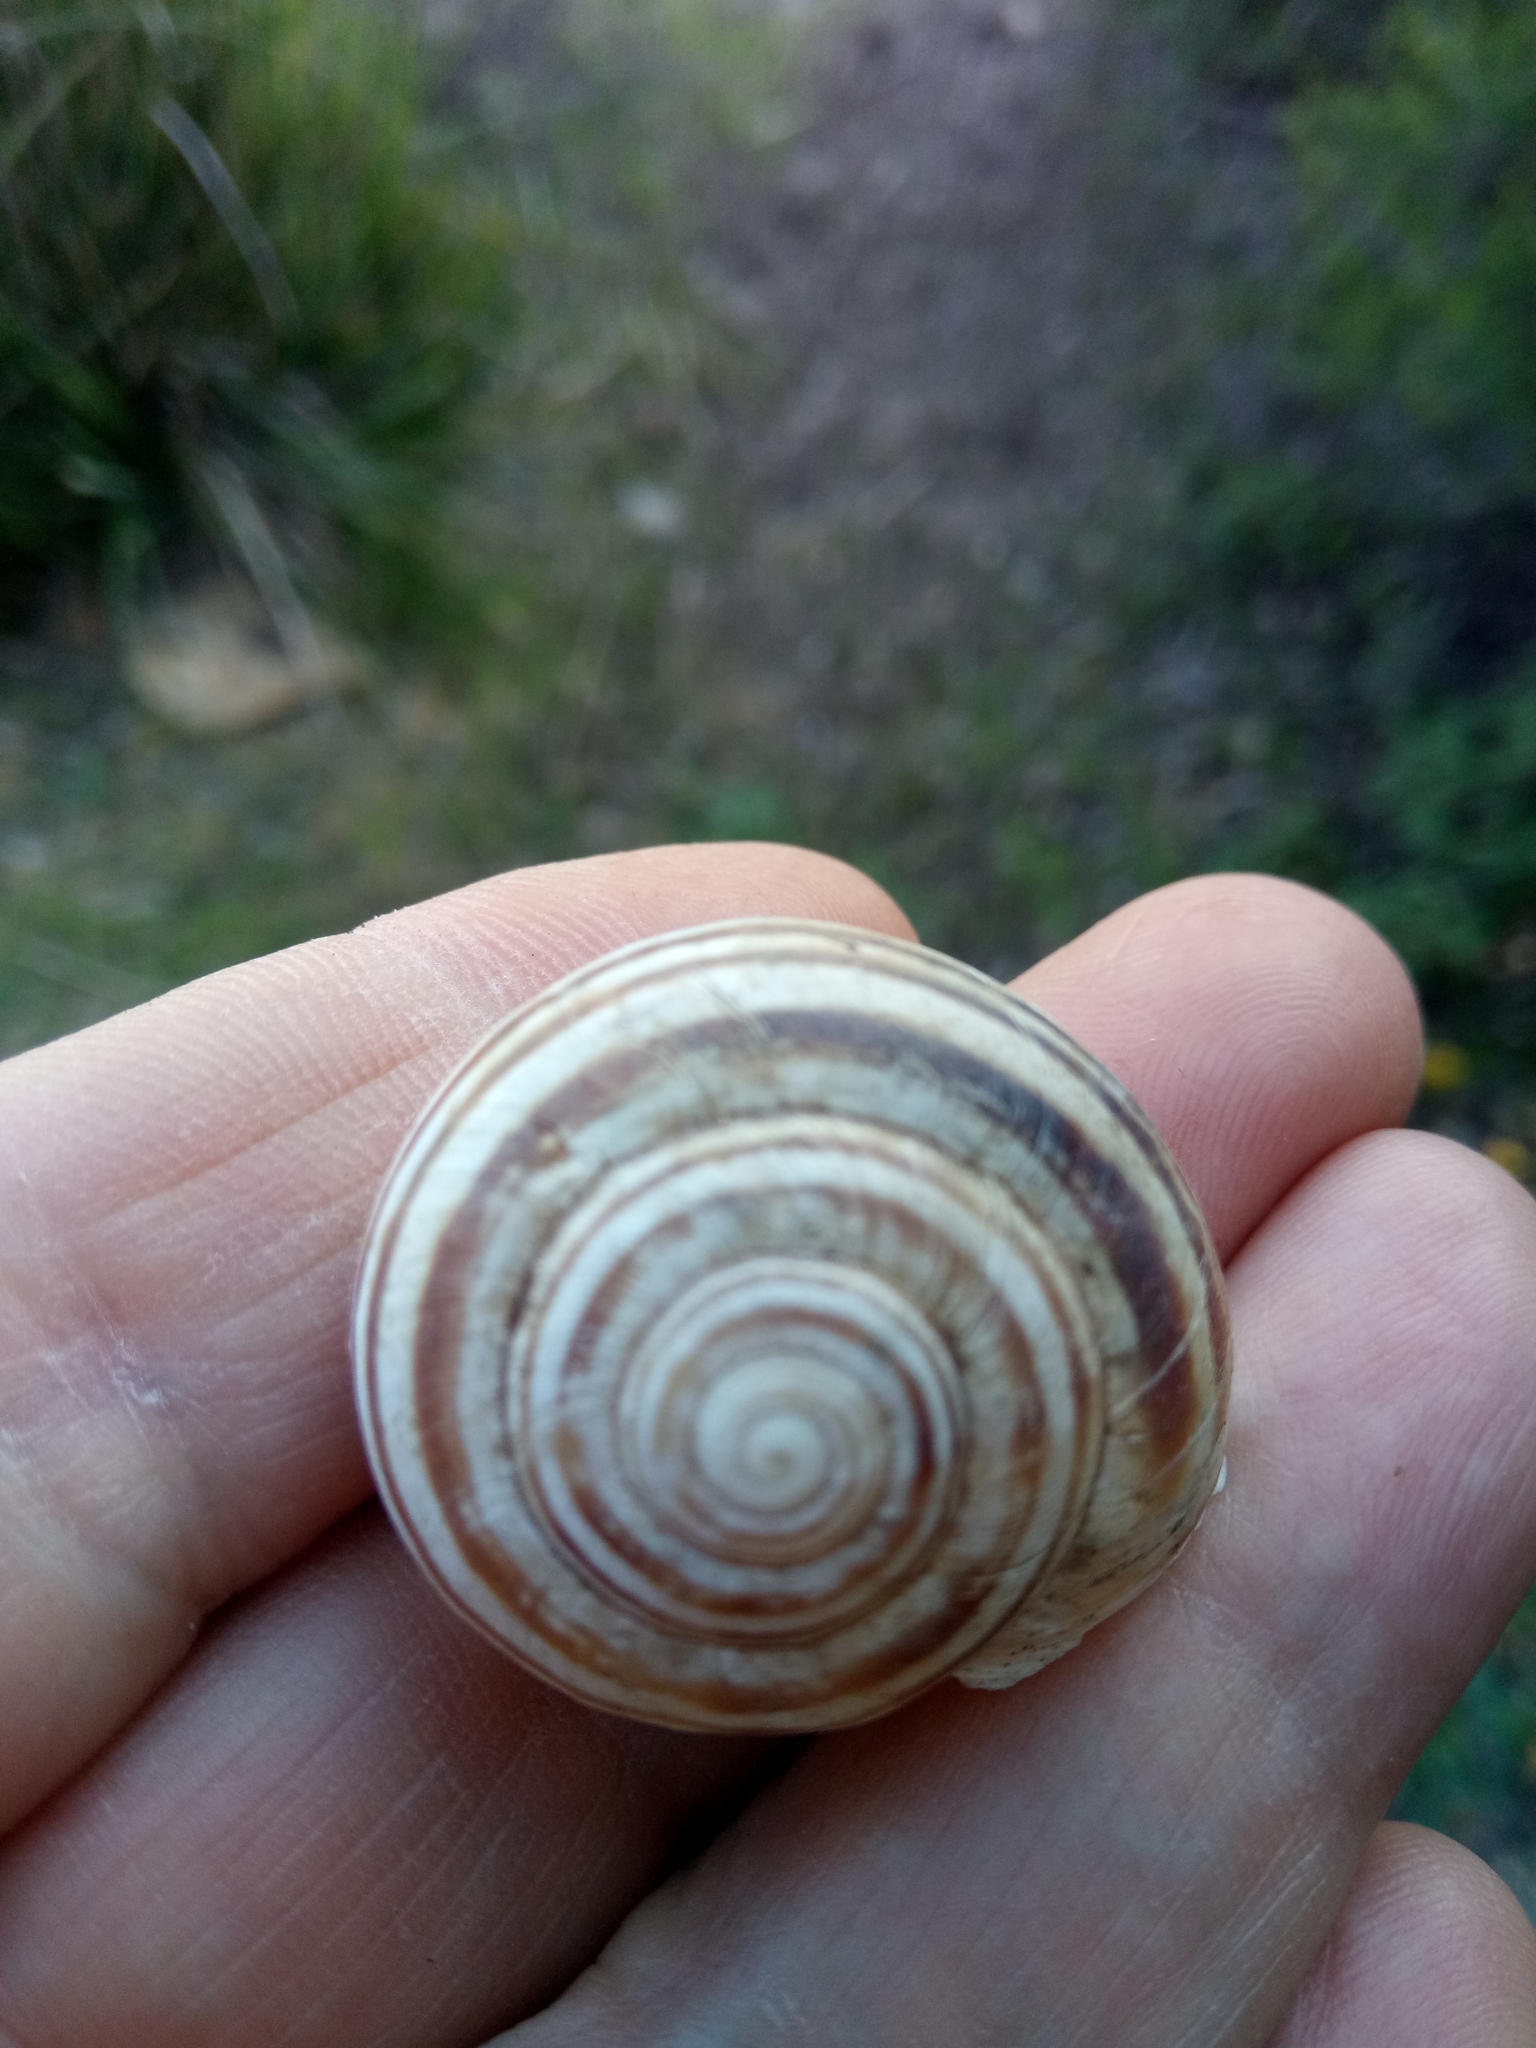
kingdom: Animalia
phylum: Mollusca
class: Gastropoda
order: Stylommatophora
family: Helicidae
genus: Eobania
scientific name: Eobania constantina
